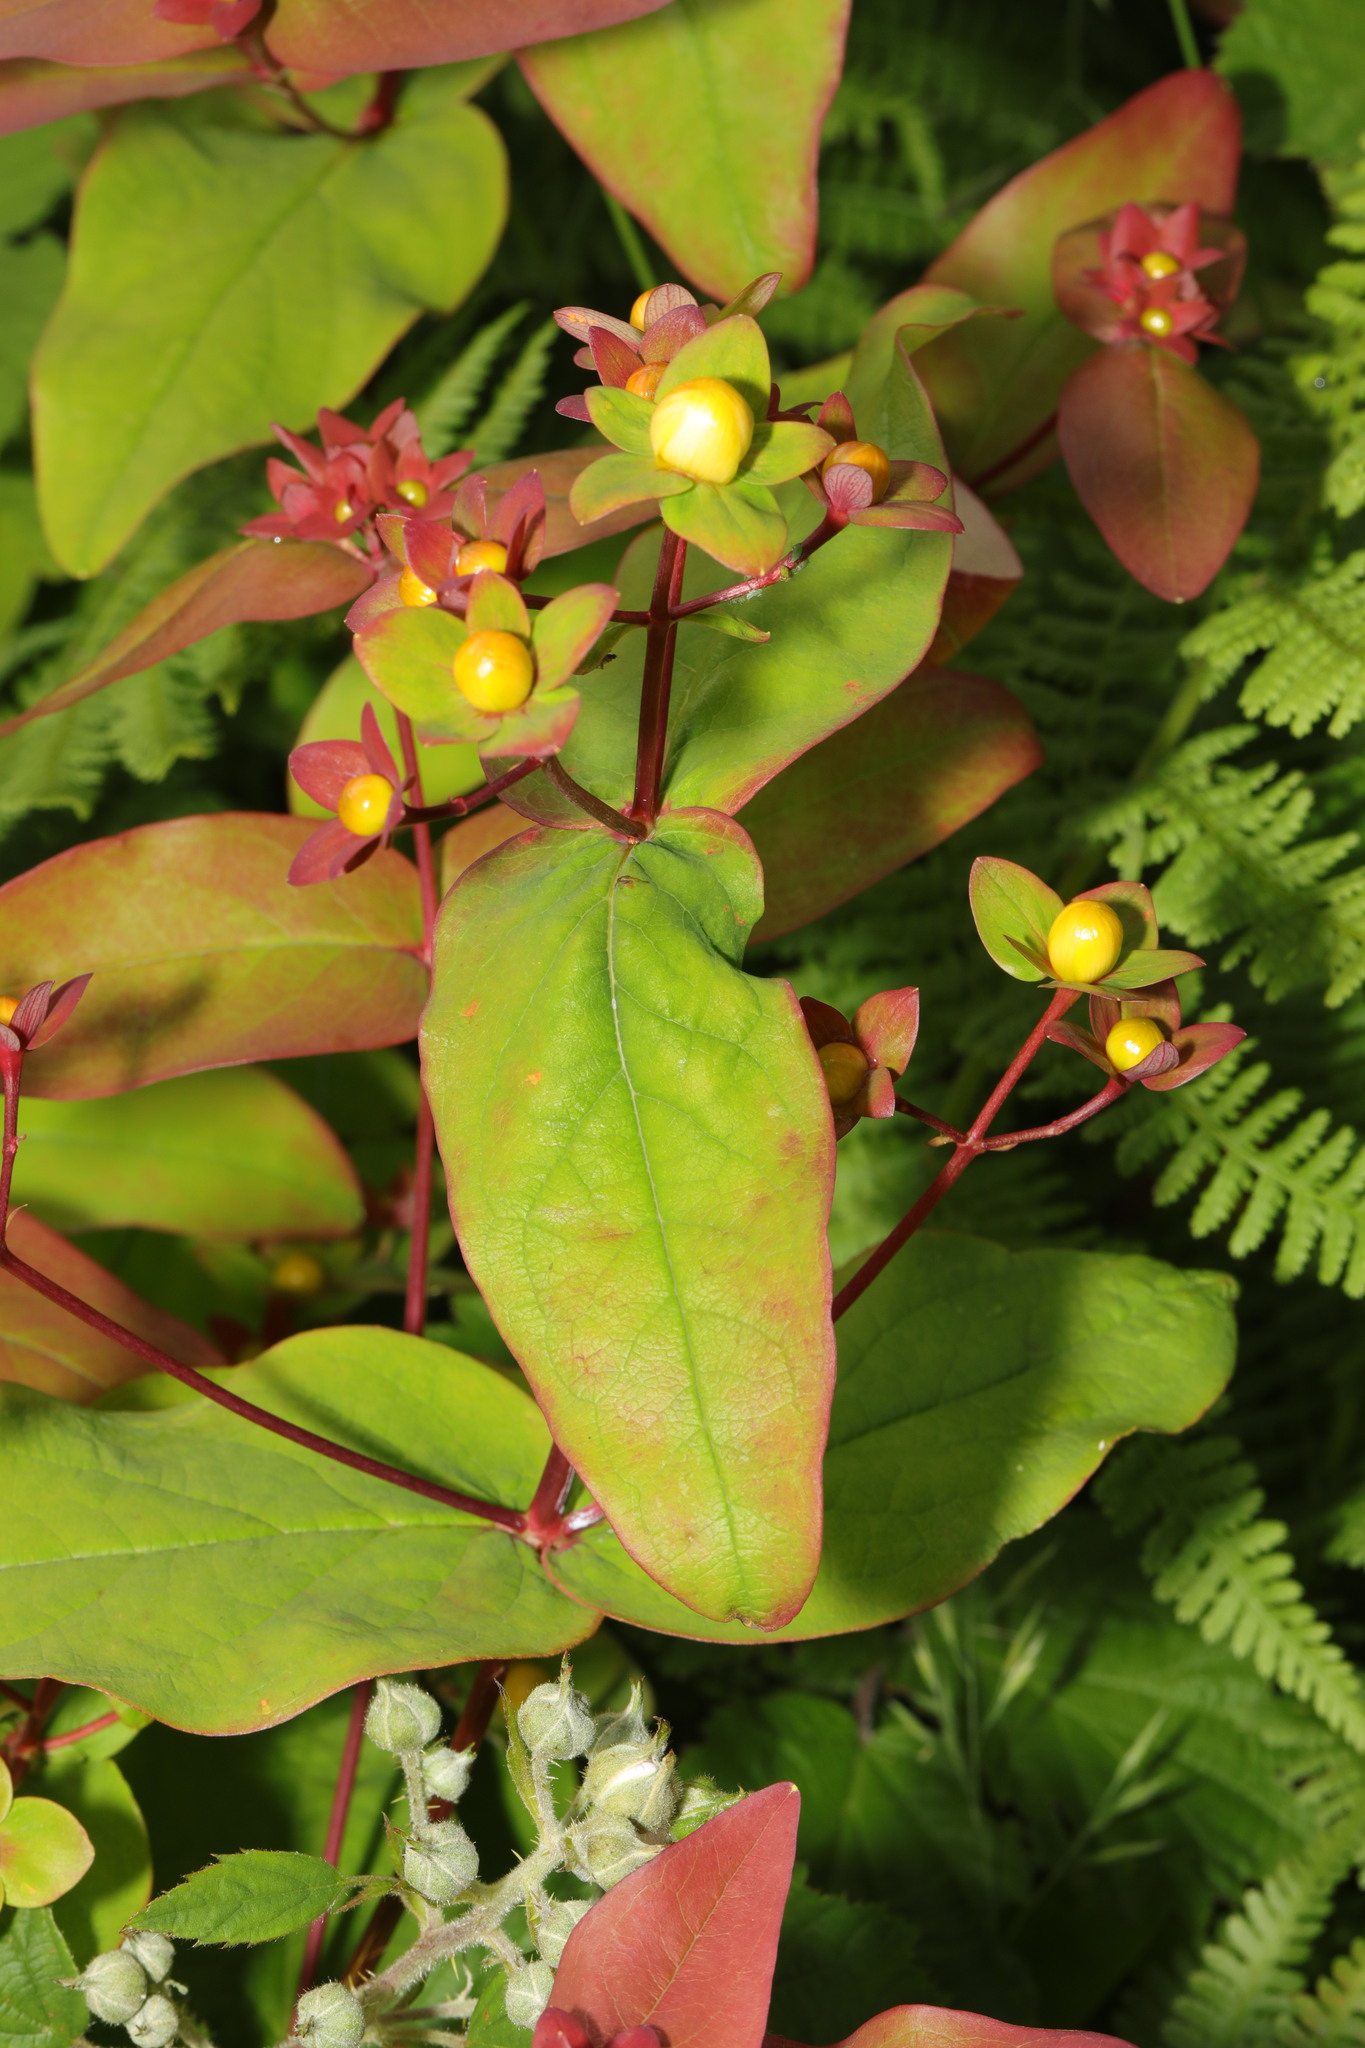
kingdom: Plantae
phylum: Tracheophyta
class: Magnoliopsida
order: Malpighiales
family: Hypericaceae
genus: Hypericum
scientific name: Hypericum androsaemum
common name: Sweet-amber
